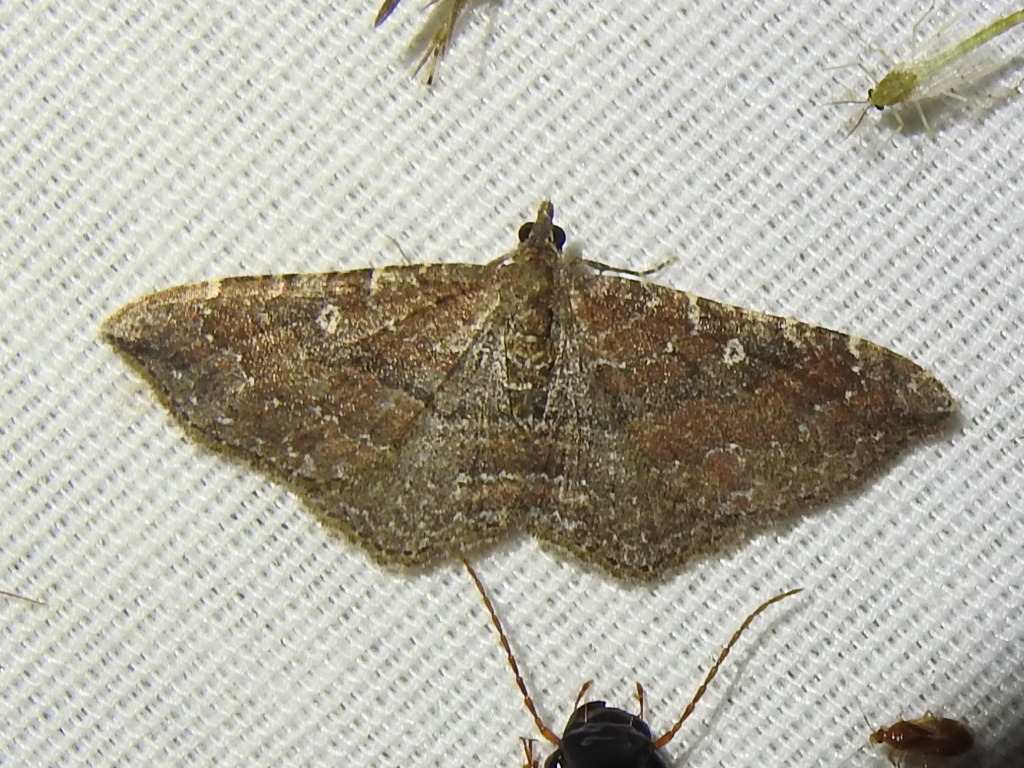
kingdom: Animalia
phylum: Arthropoda
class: Insecta
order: Lepidoptera
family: Geometridae
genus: Orthonama
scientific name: Orthonama obstipata
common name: The gem
